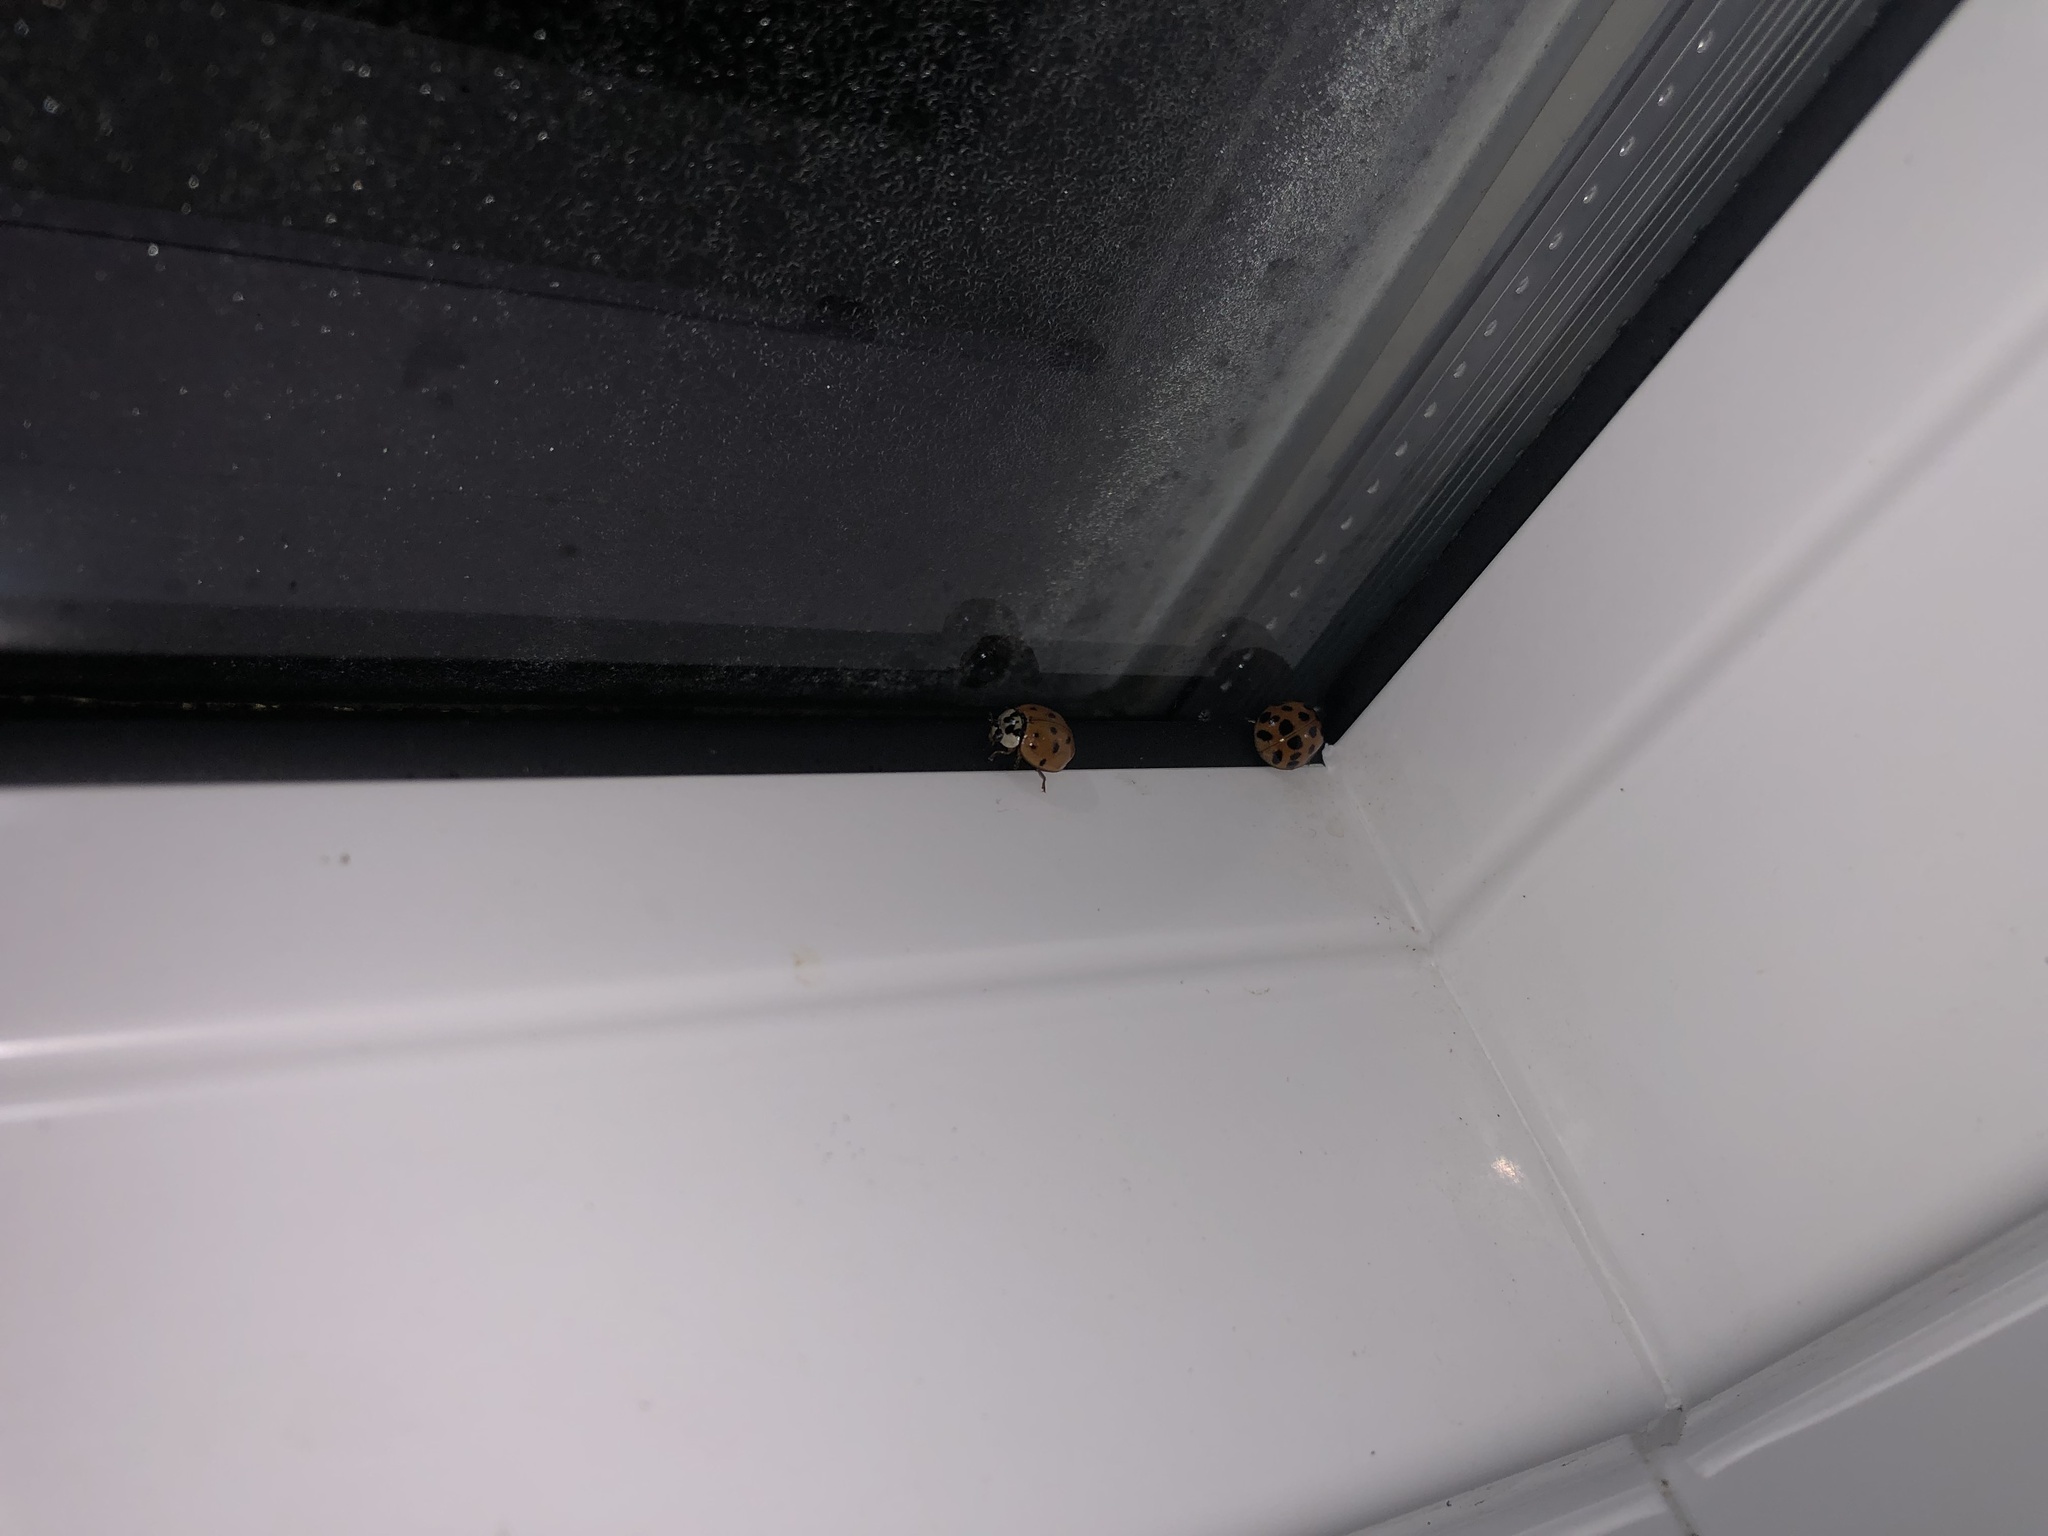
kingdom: Animalia
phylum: Arthropoda
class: Insecta
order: Coleoptera
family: Coccinellidae
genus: Harmonia
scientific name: Harmonia axyridis
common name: Harlequin ladybird
